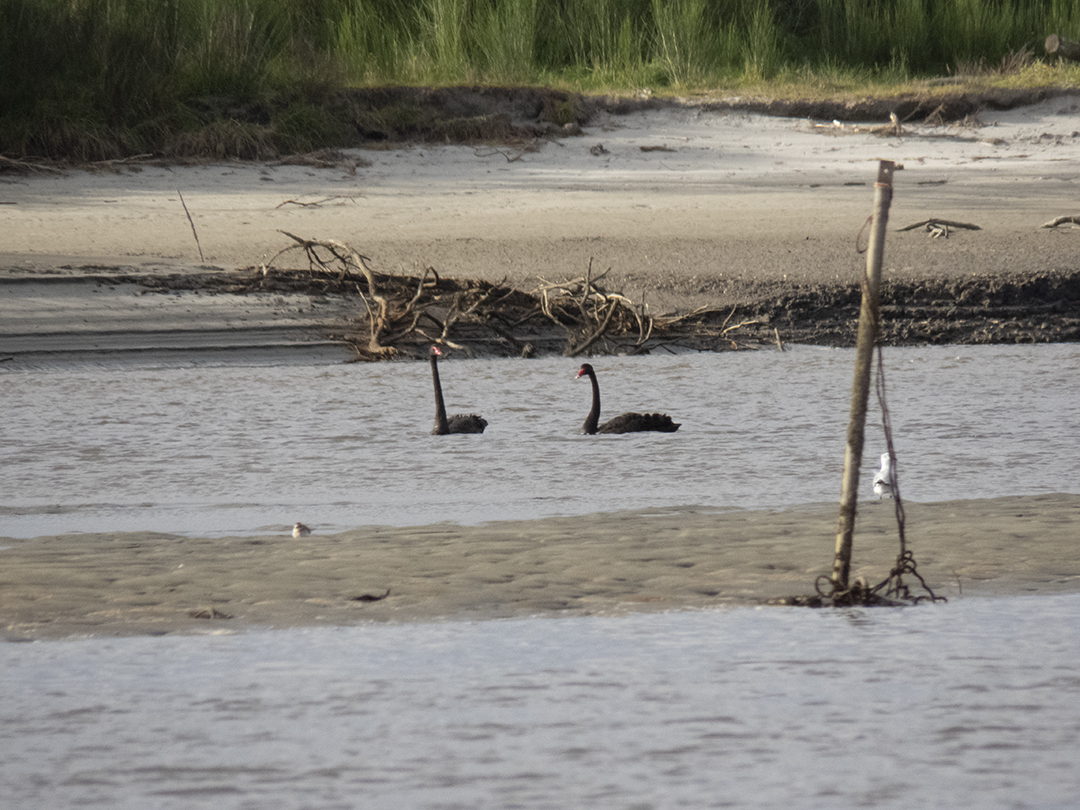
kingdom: Animalia
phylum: Chordata
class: Aves
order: Anseriformes
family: Anatidae
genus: Cygnus
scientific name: Cygnus atratus
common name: Black swan
